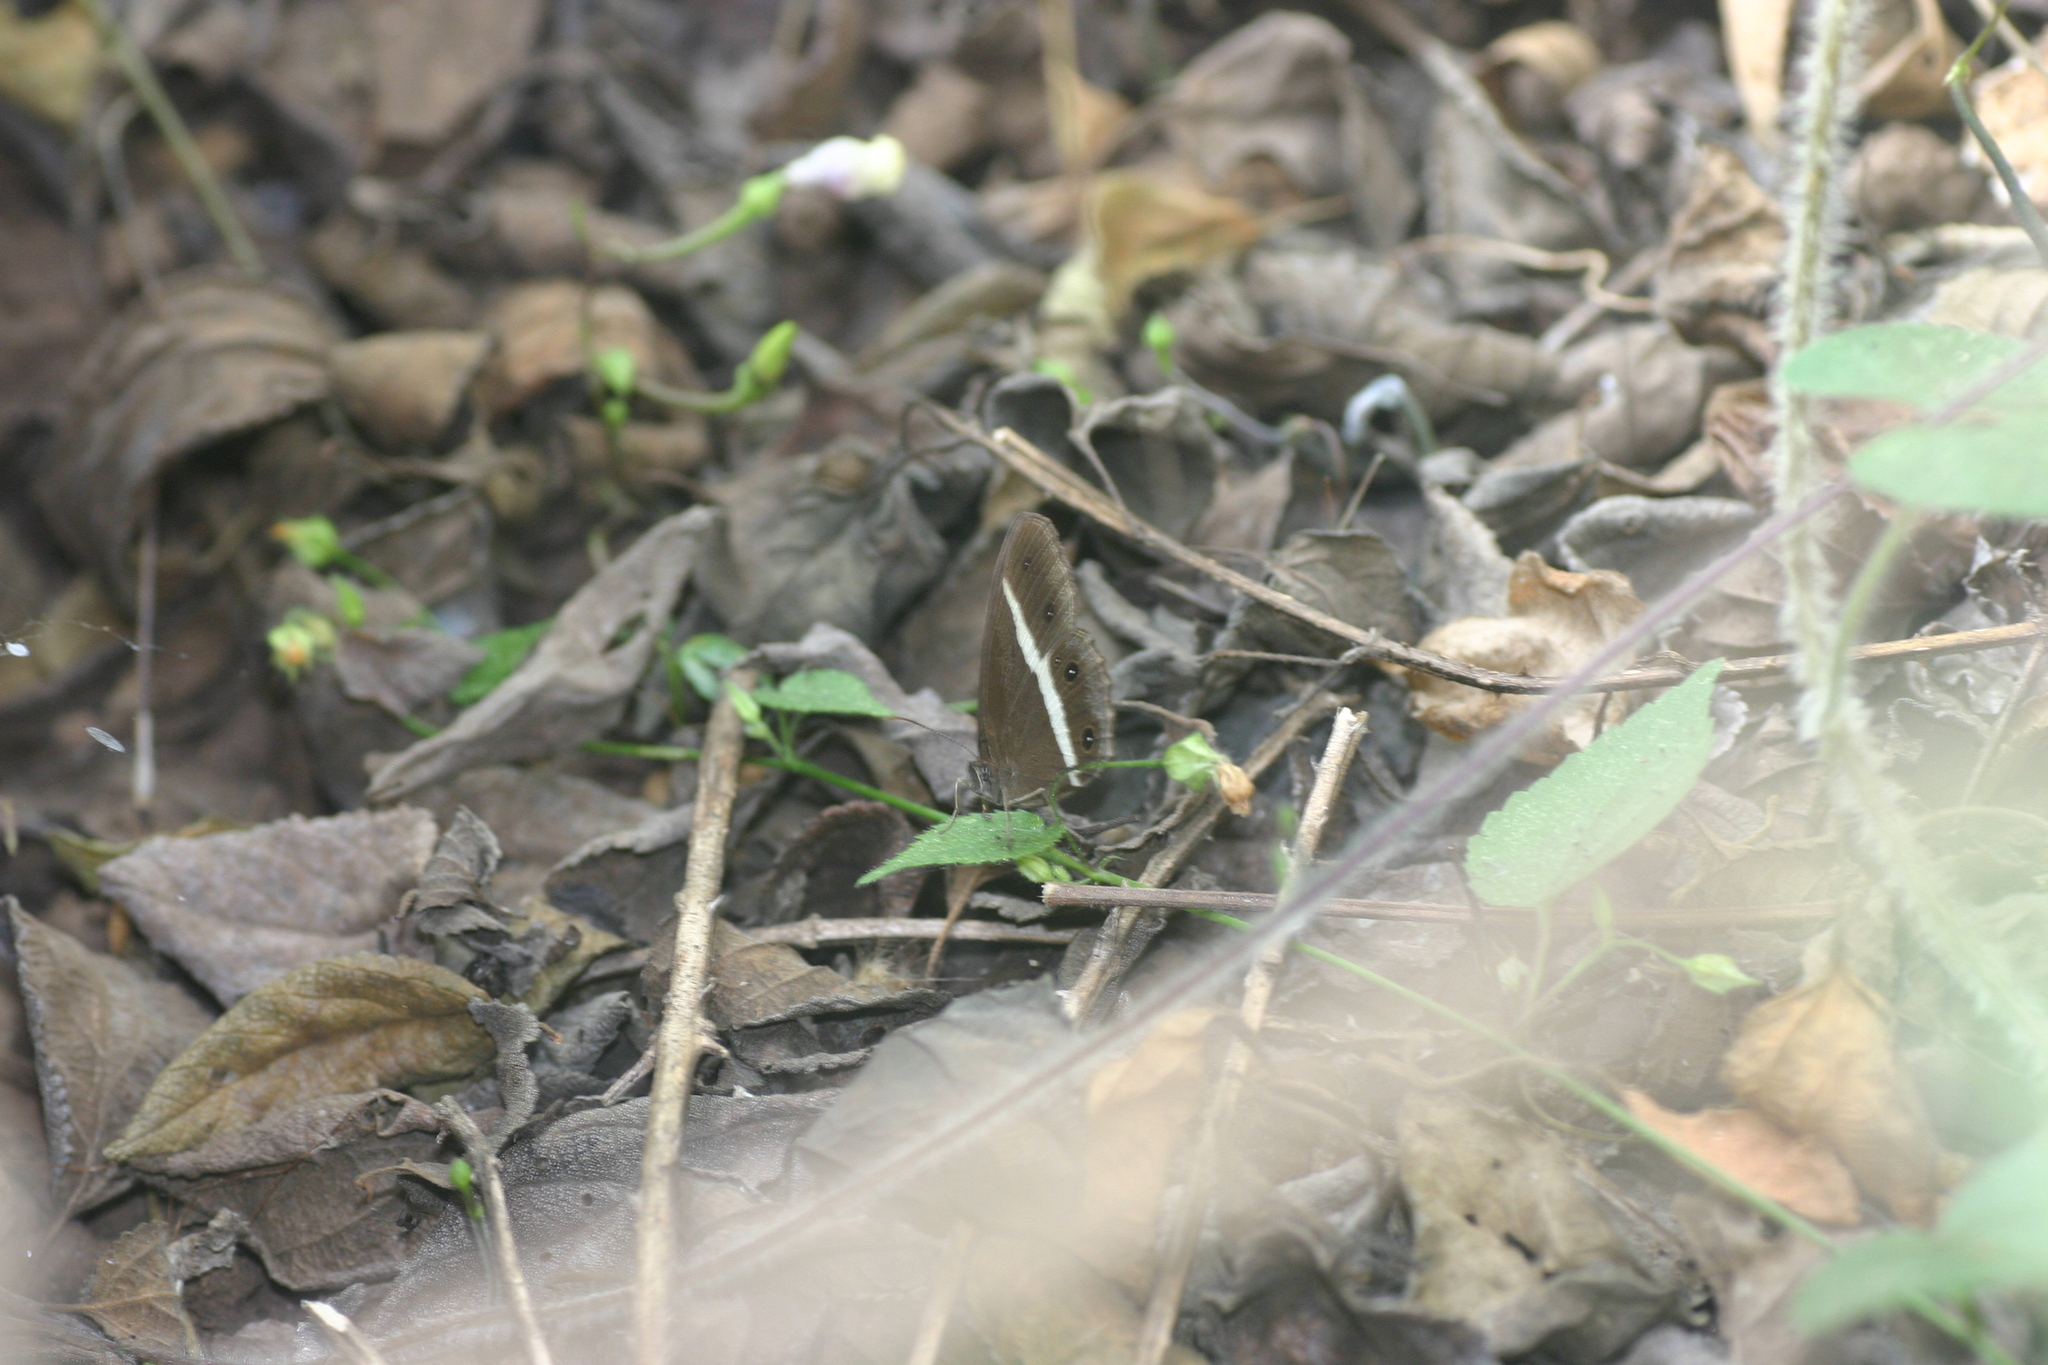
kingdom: Animalia
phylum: Arthropoda
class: Insecta
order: Lepidoptera
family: Nymphalidae
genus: Orsotriaena
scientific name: Orsotriaena medus
